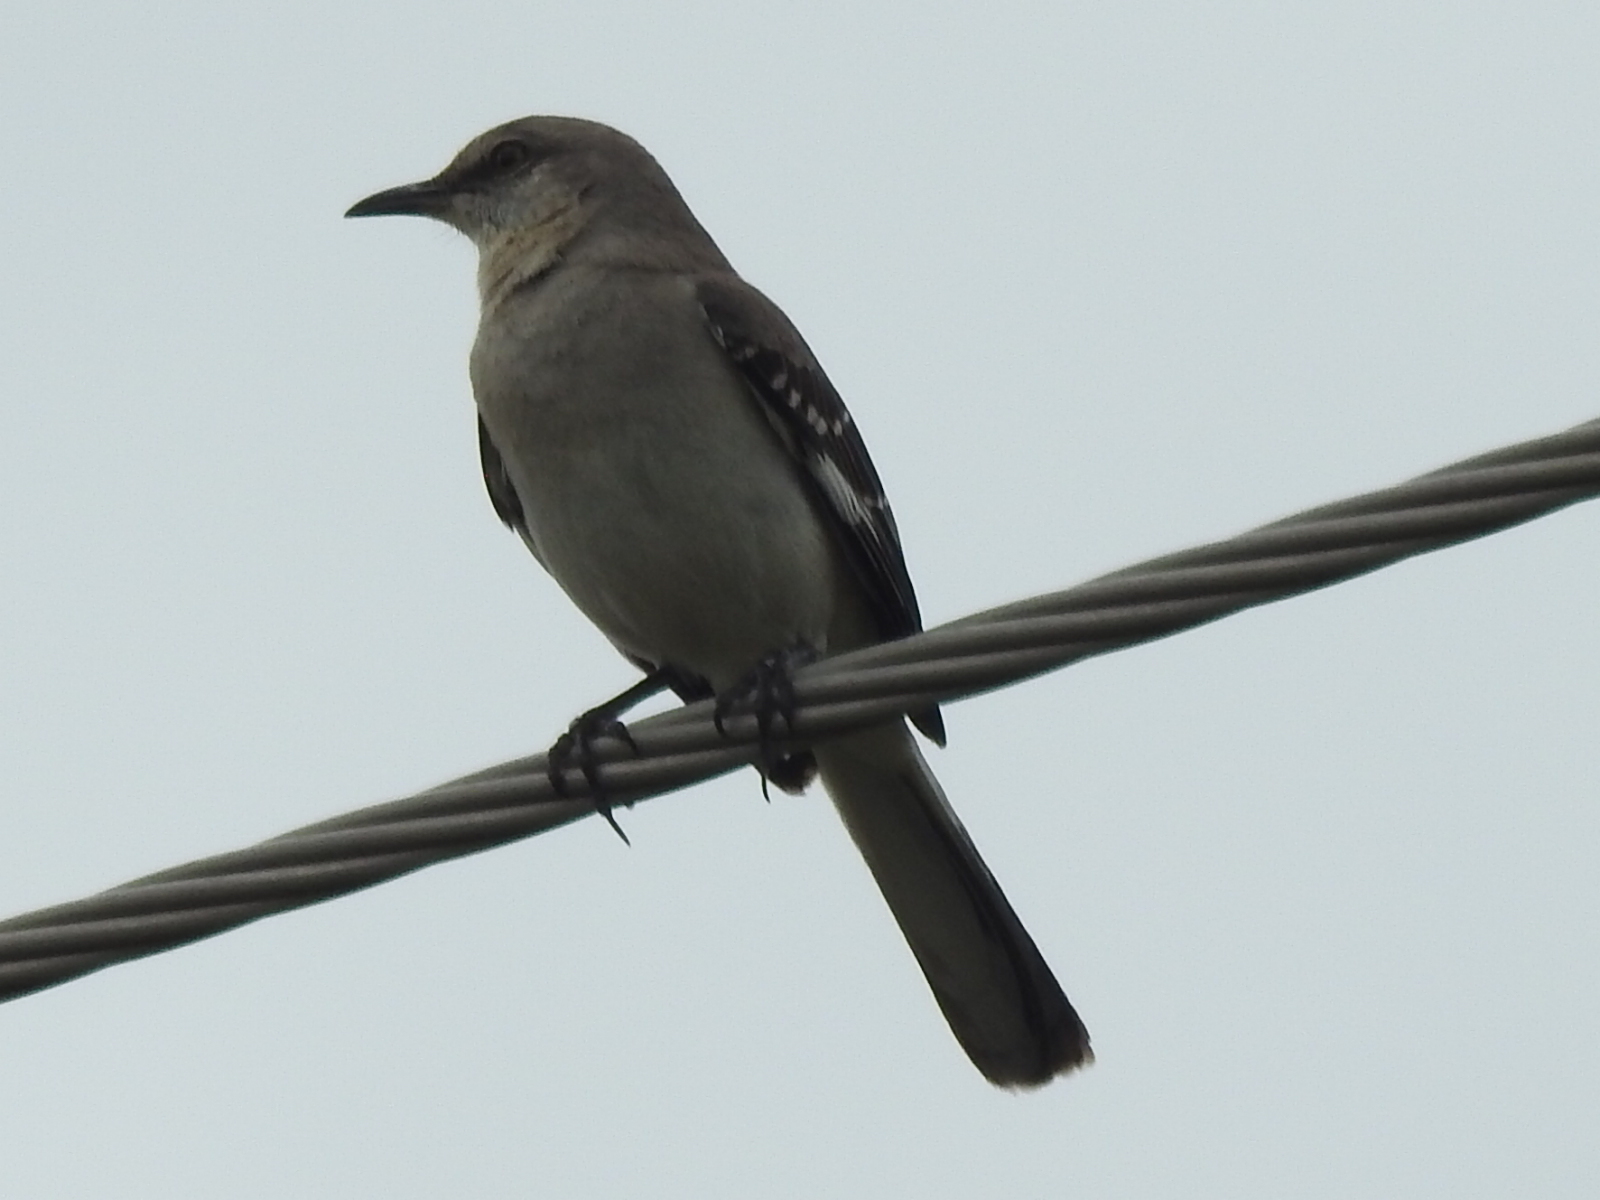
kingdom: Animalia
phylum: Chordata
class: Aves
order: Passeriformes
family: Mimidae
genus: Mimus
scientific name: Mimus polyglottos
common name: Northern mockingbird
